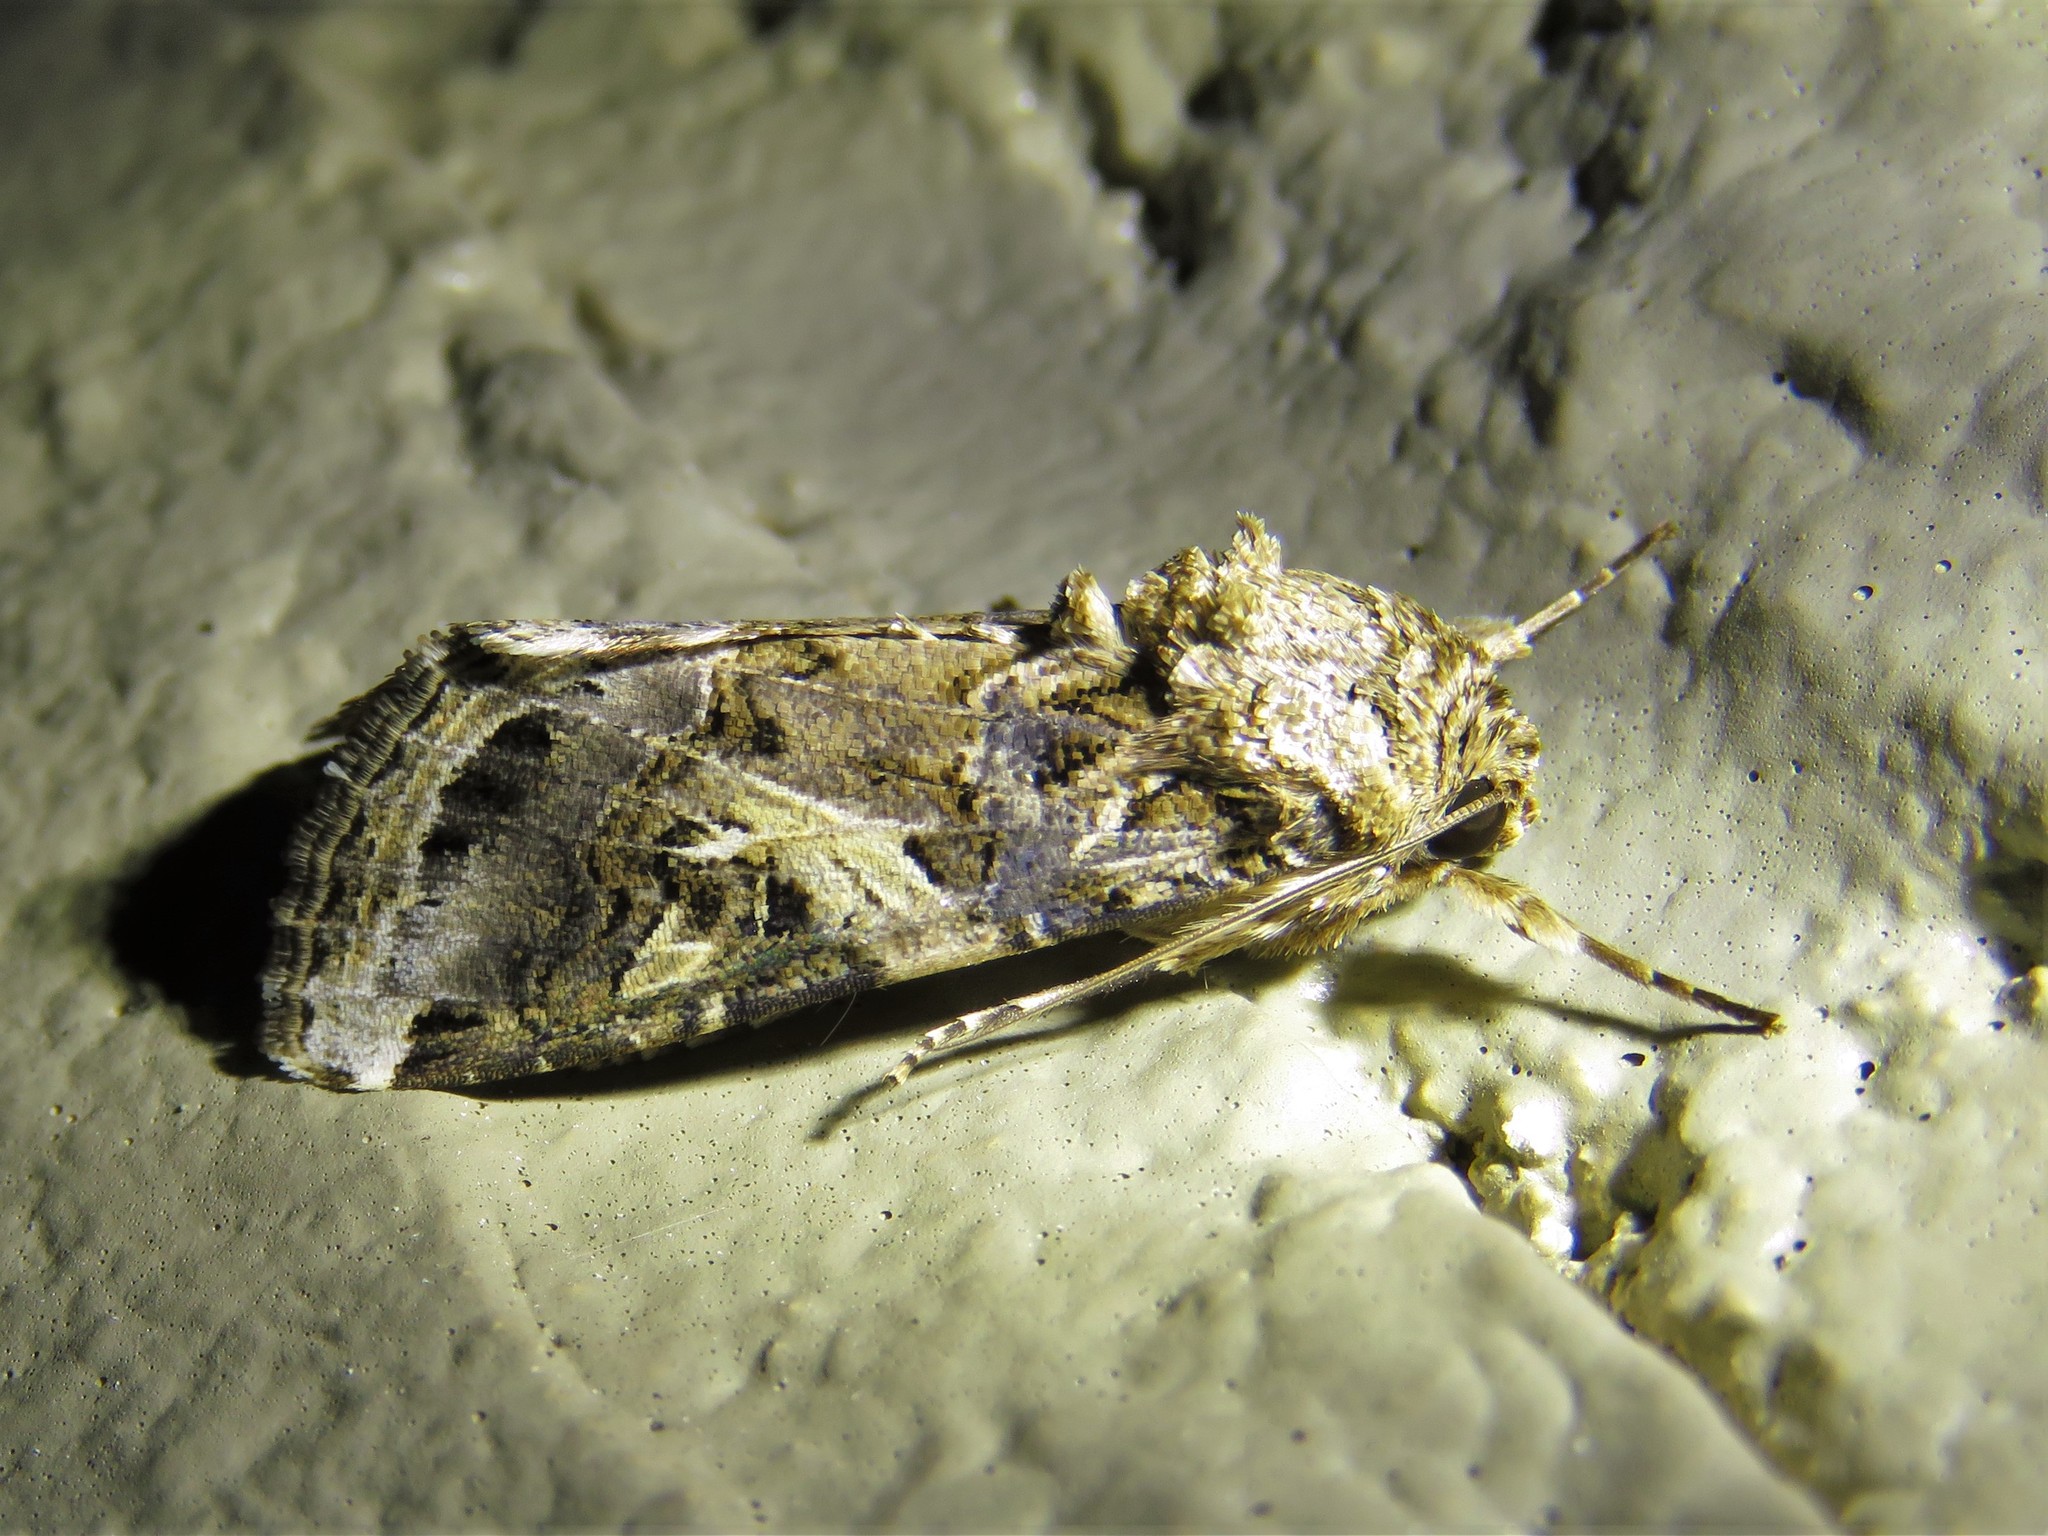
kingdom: Animalia
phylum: Arthropoda
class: Insecta
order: Lepidoptera
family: Noctuidae
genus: Spodoptera
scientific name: Spodoptera ornithogalli
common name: Yellow-striped armyworm
